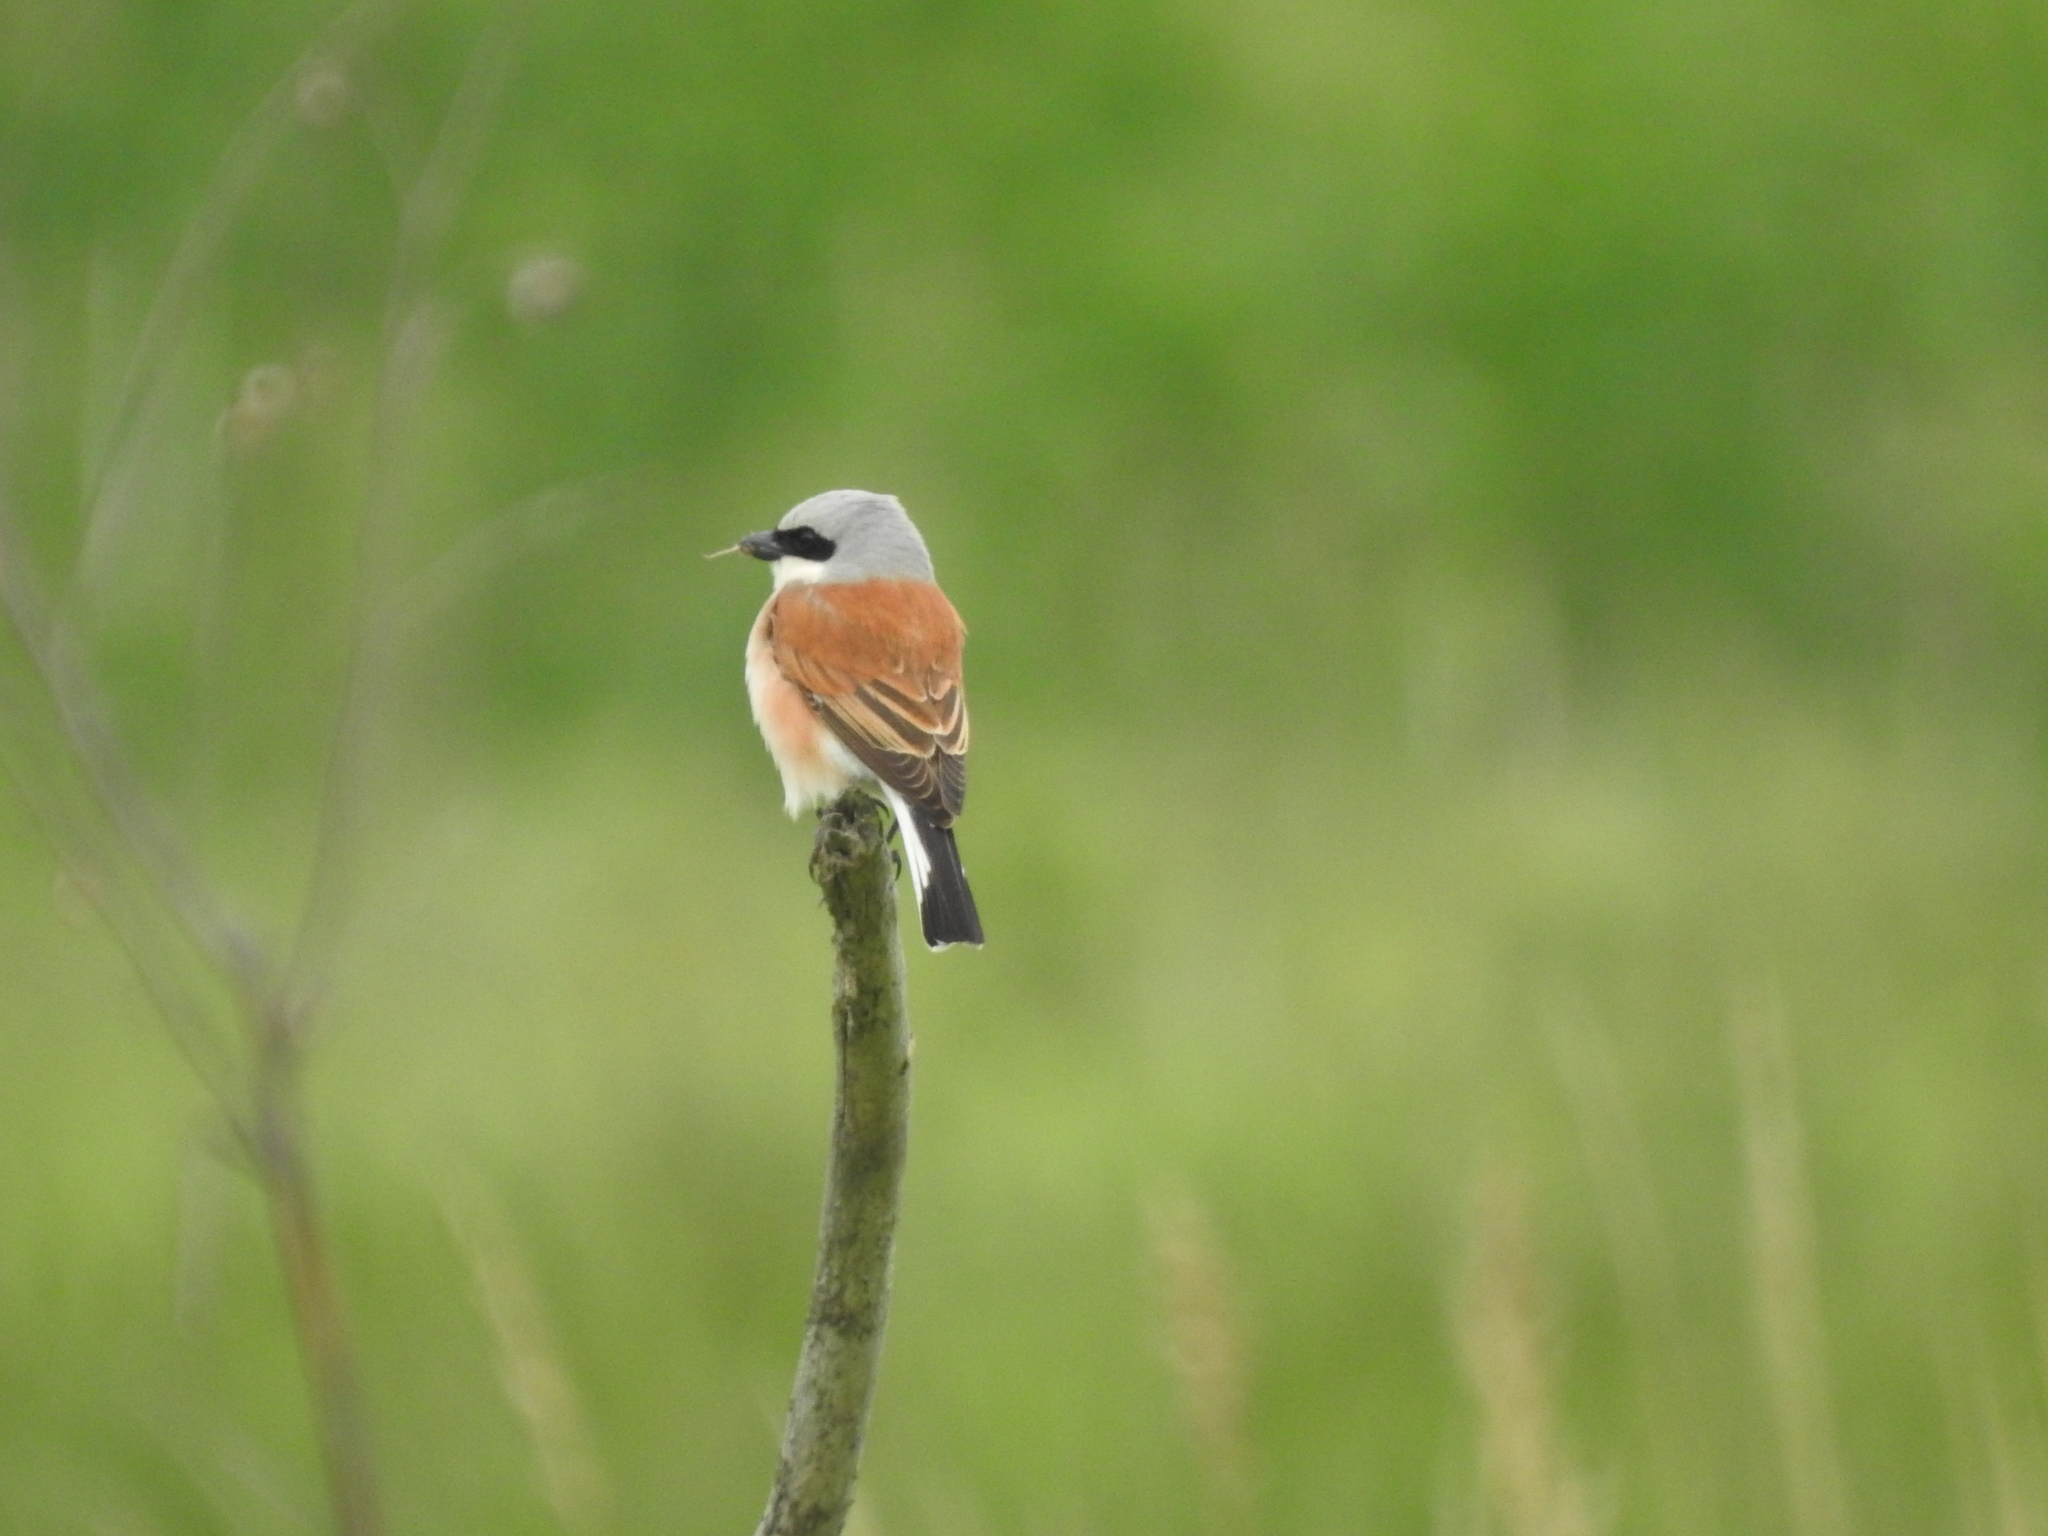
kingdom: Animalia
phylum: Chordata
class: Aves
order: Passeriformes
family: Laniidae
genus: Lanius
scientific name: Lanius collurio
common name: Red-backed shrike
